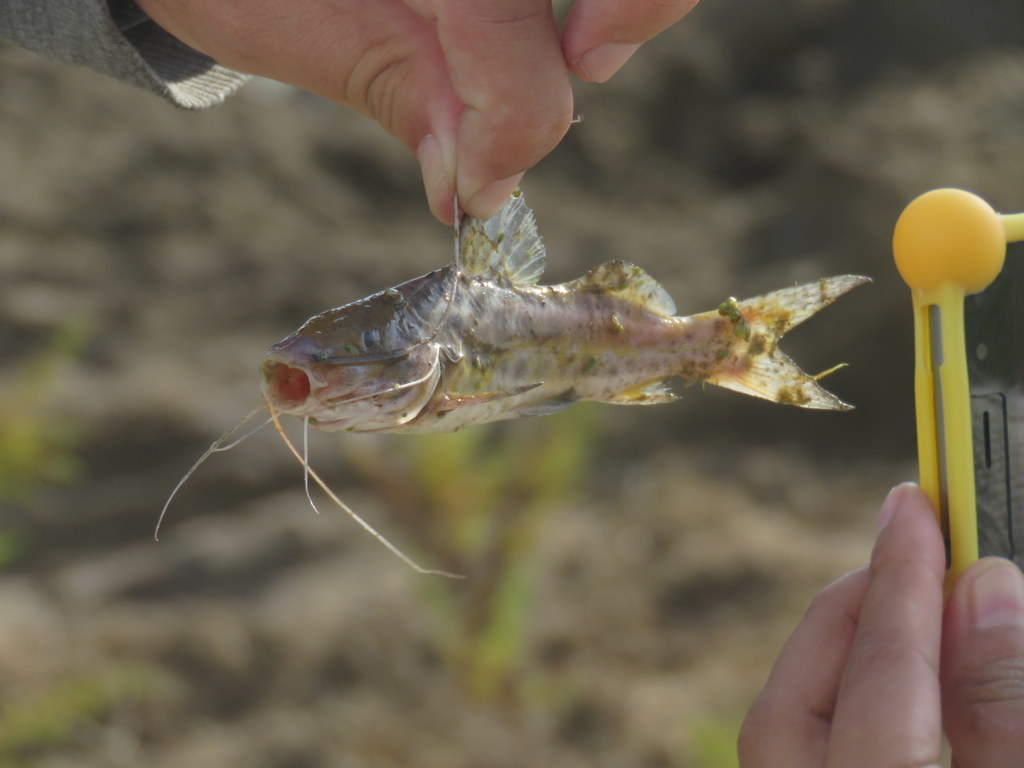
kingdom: Animalia
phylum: Chordata
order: Siluriformes
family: Pimelodidae
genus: Pimelodus
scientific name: Pimelodus maculatus
